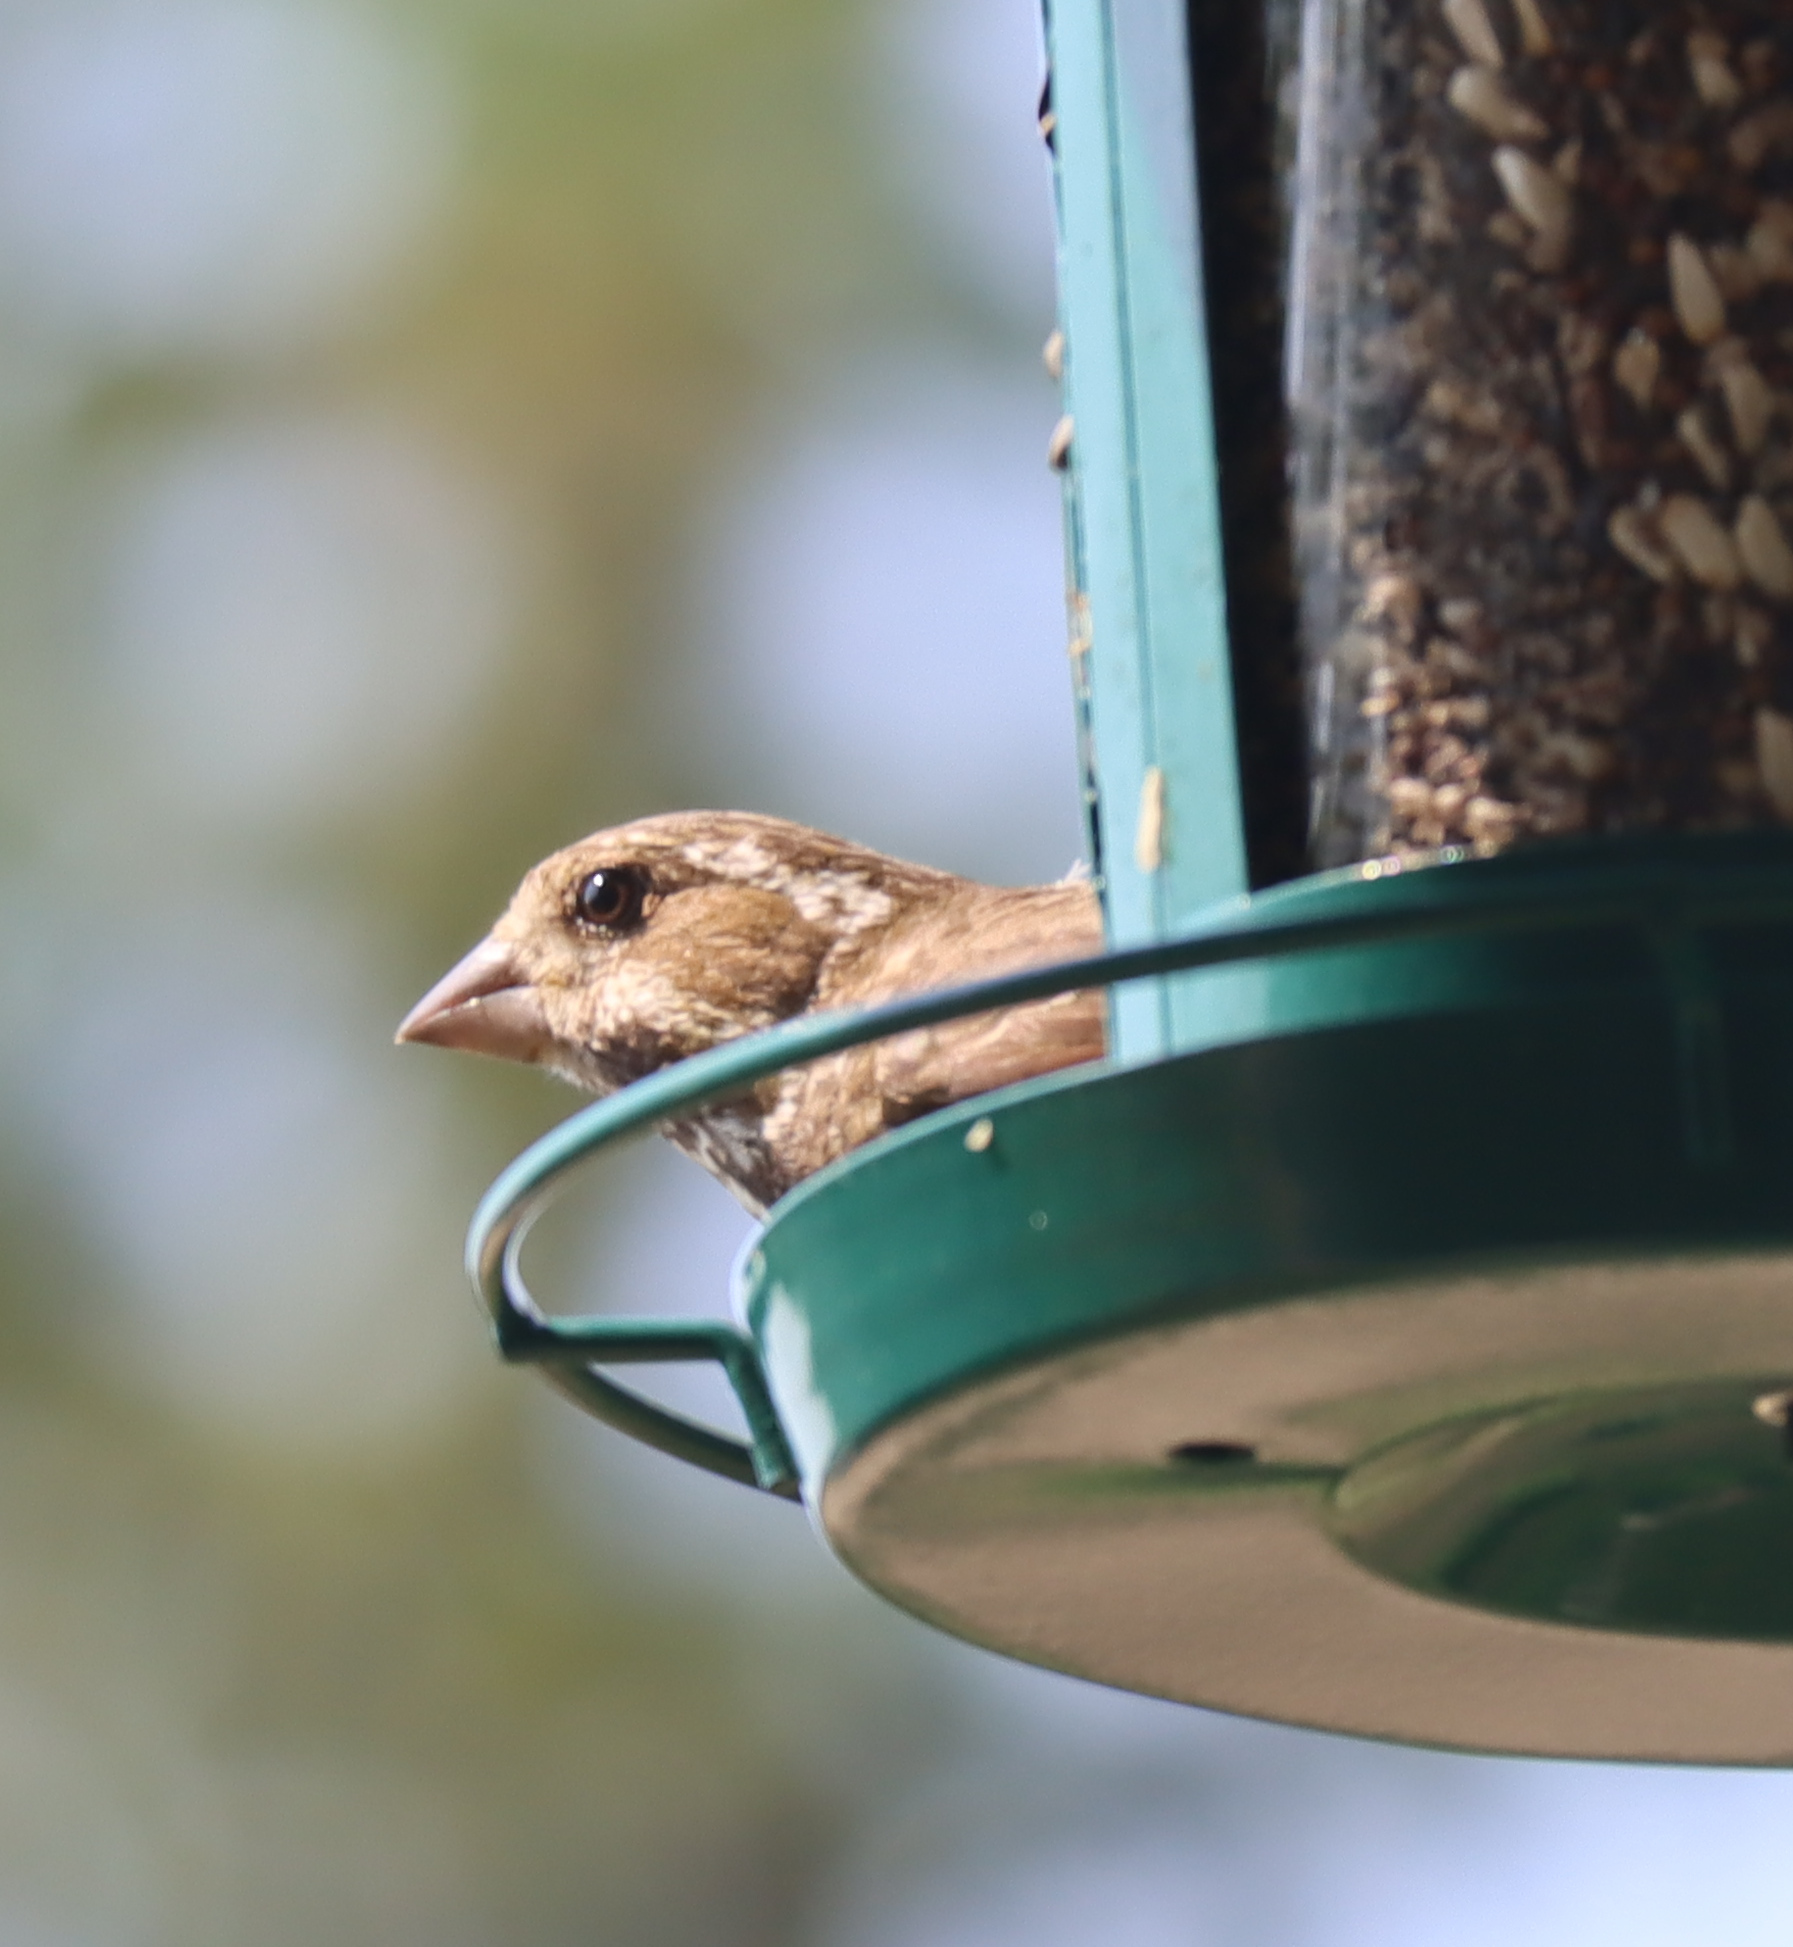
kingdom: Animalia
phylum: Chordata
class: Aves
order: Passeriformes
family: Fringillidae
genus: Haemorhous
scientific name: Haemorhous purpureus
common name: Purple finch
